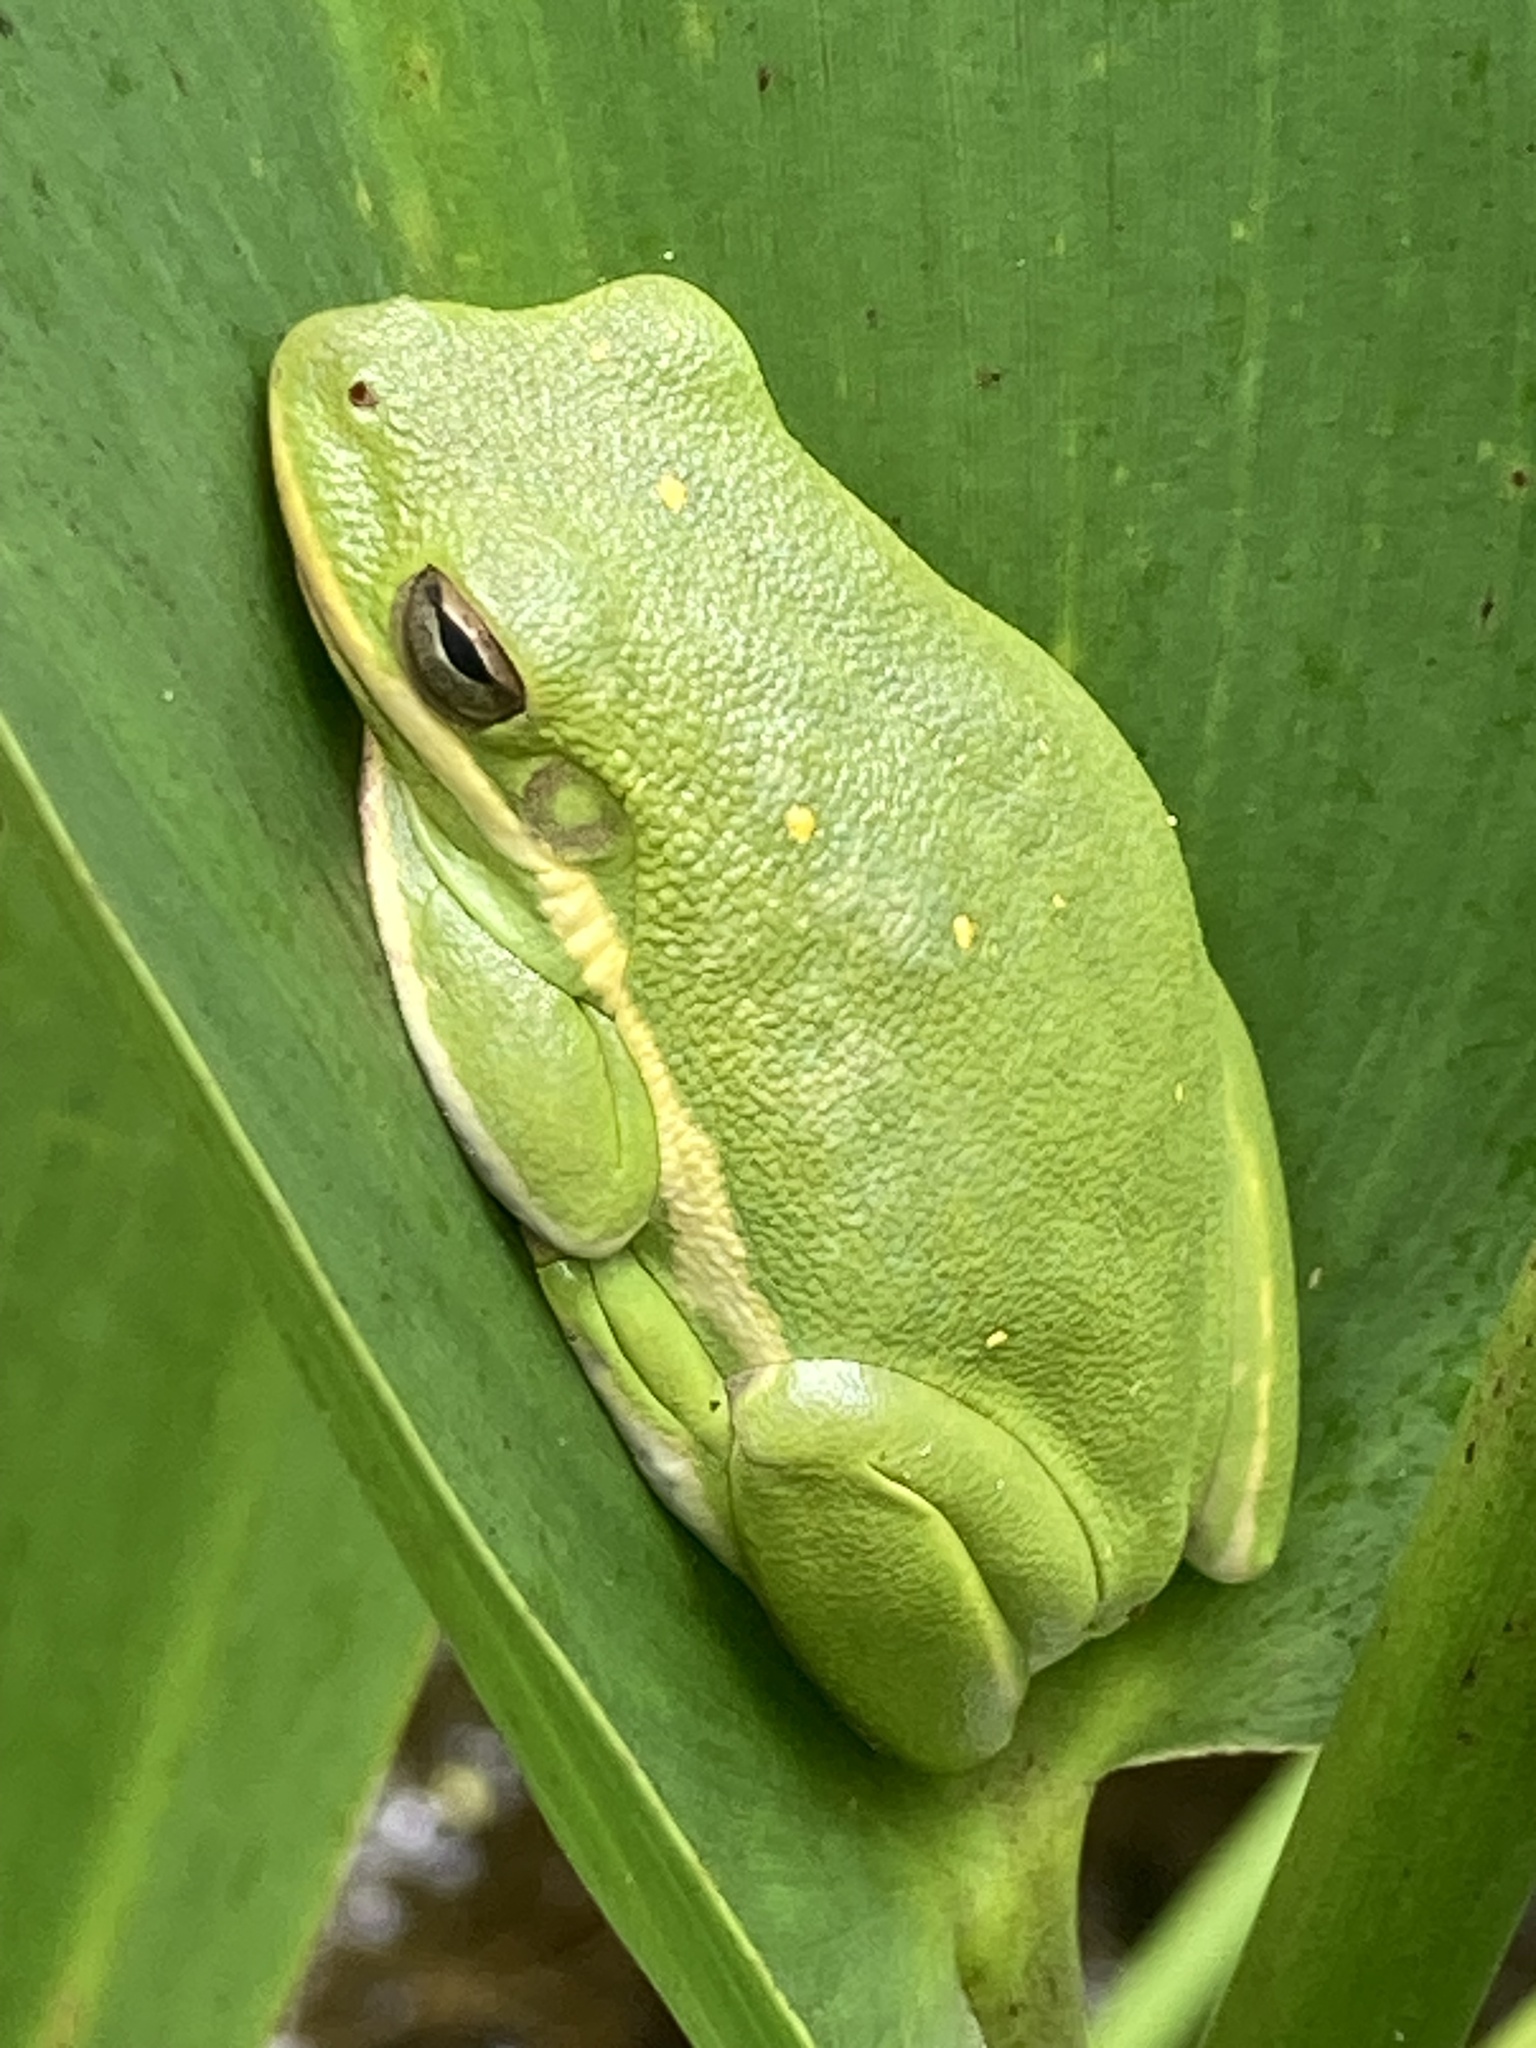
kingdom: Animalia
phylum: Chordata
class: Amphibia
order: Anura
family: Hylidae
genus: Dryophytes
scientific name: Dryophytes cinereus
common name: Green treefrog
